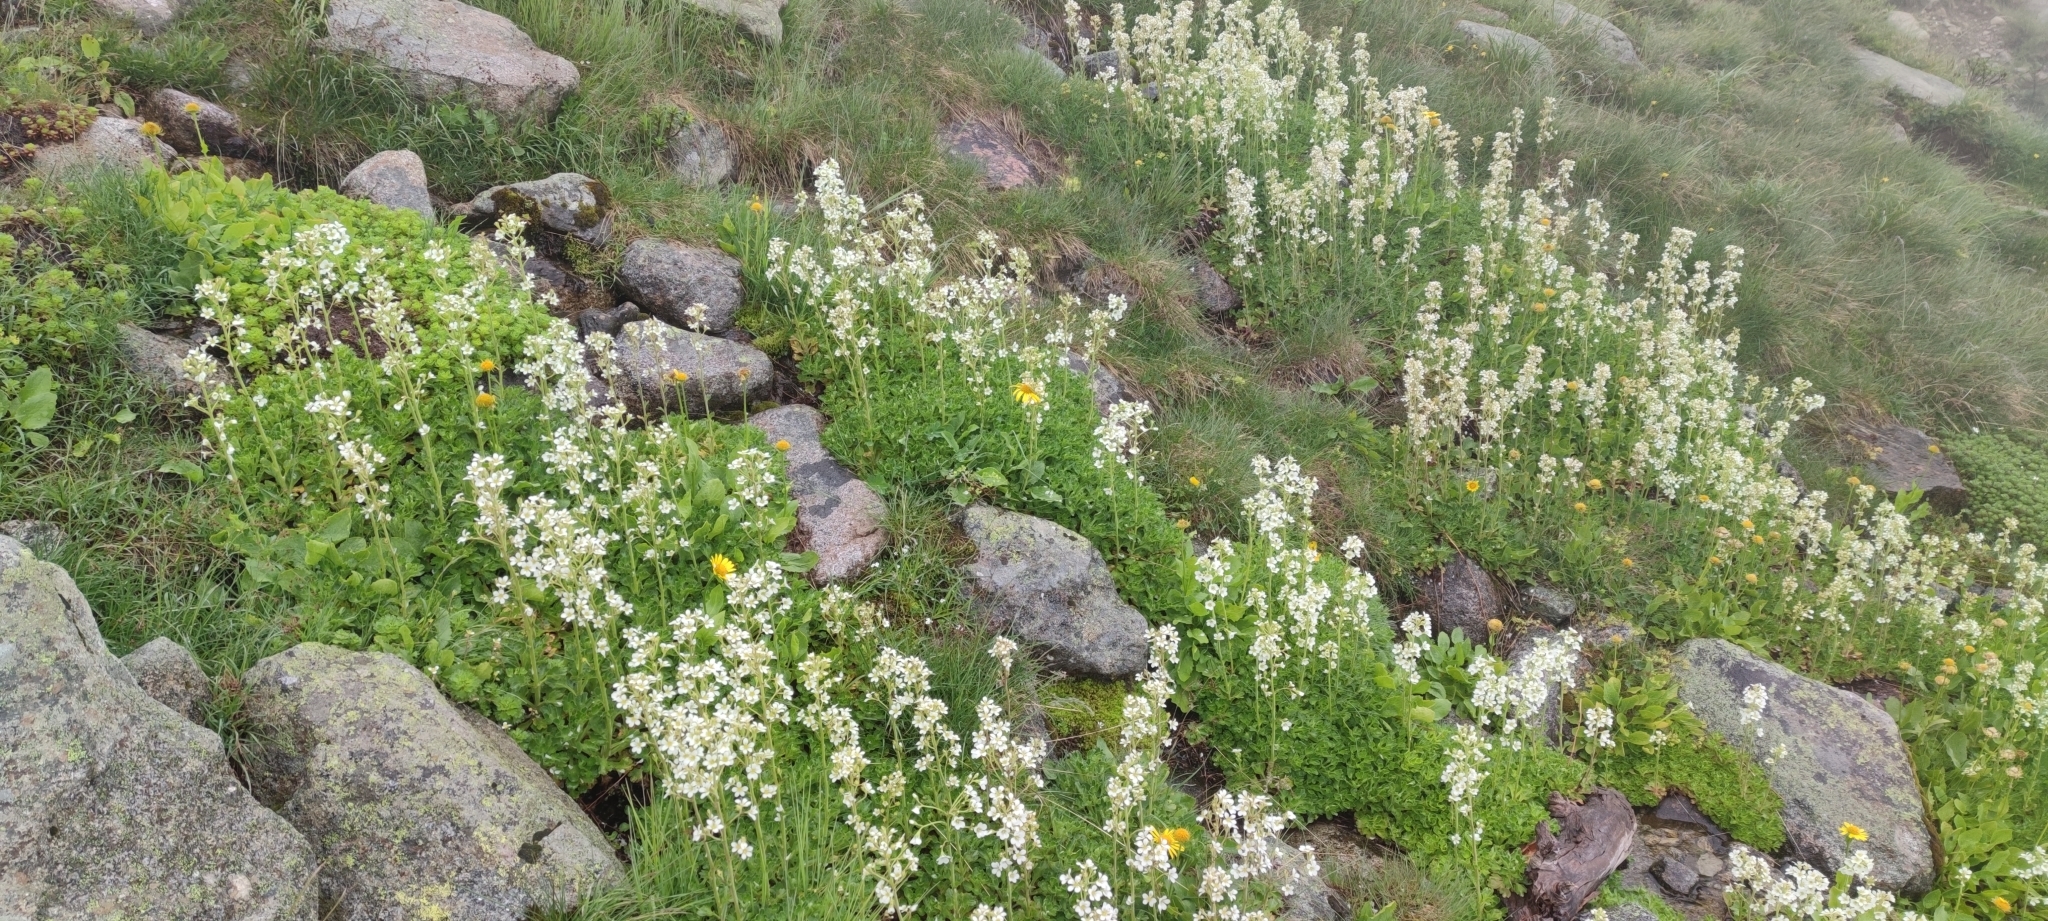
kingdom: Plantae
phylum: Tracheophyta
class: Magnoliopsida
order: Saxifragales
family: Saxifragaceae
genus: Saxifraga
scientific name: Saxifraga aquatica
